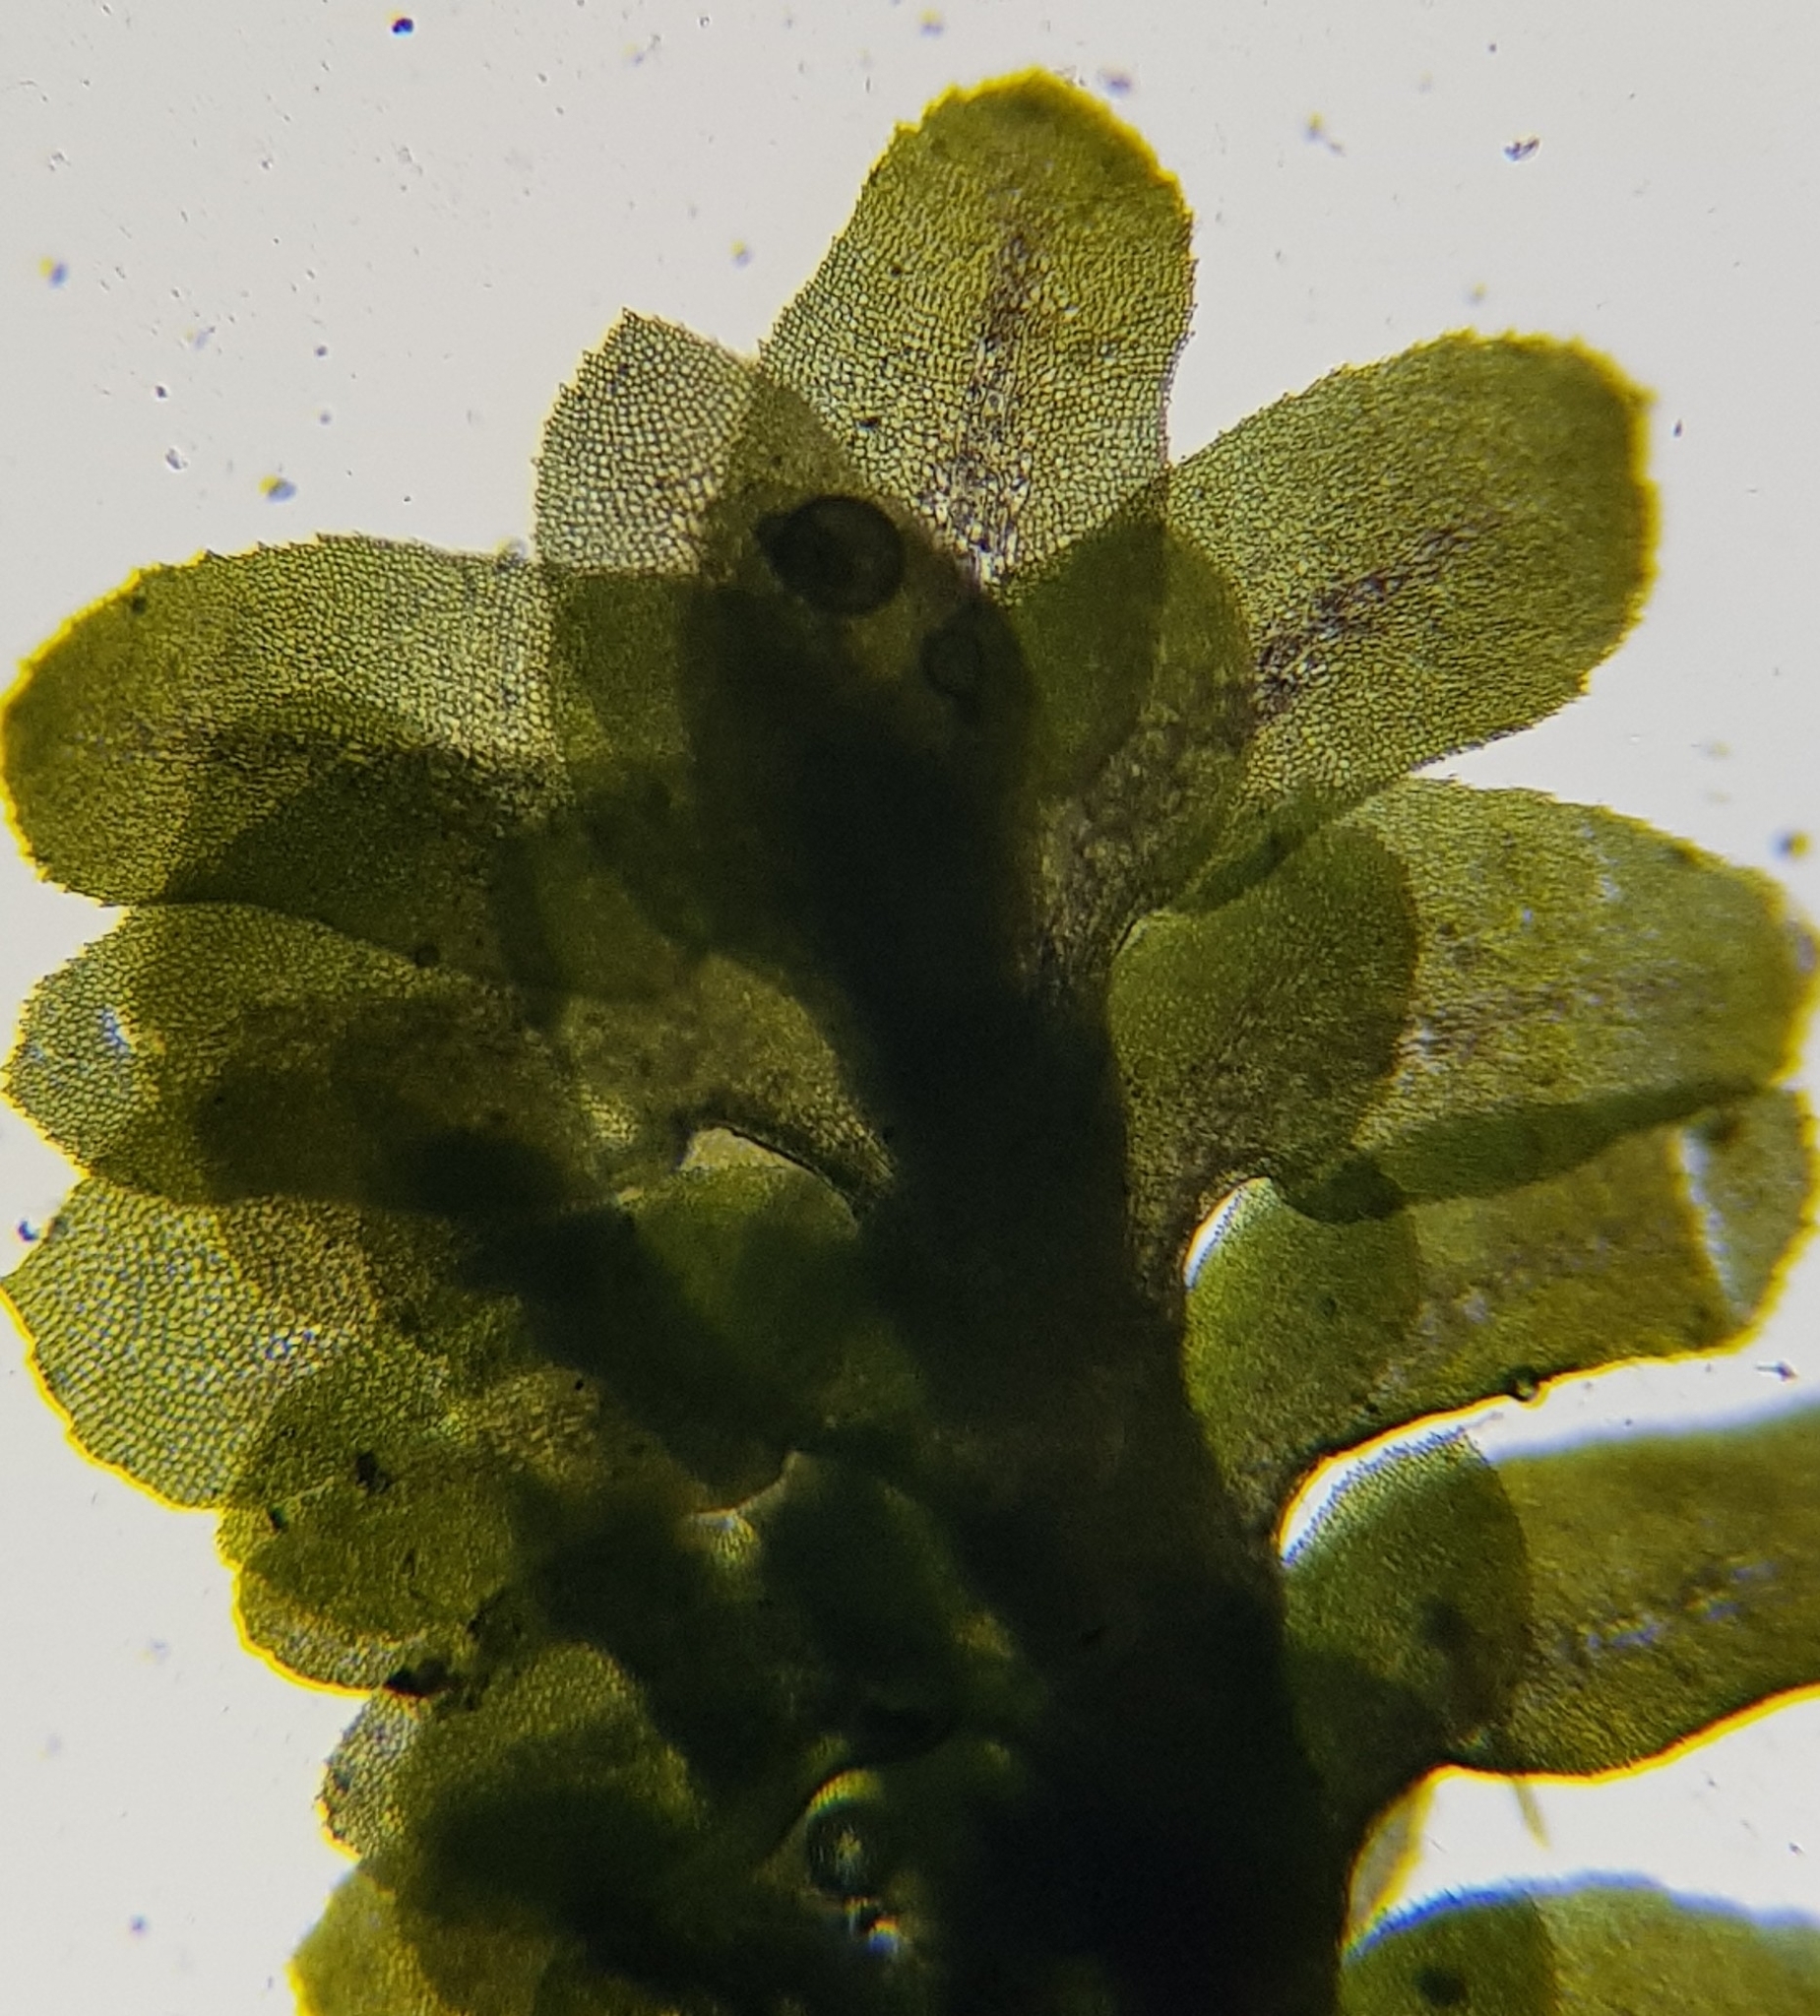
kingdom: Plantae
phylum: Marchantiophyta
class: Jungermanniopsida
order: Jungermanniales
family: Scapaniaceae
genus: Diplophyllum
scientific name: Diplophyllum albicans
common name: White earwort
